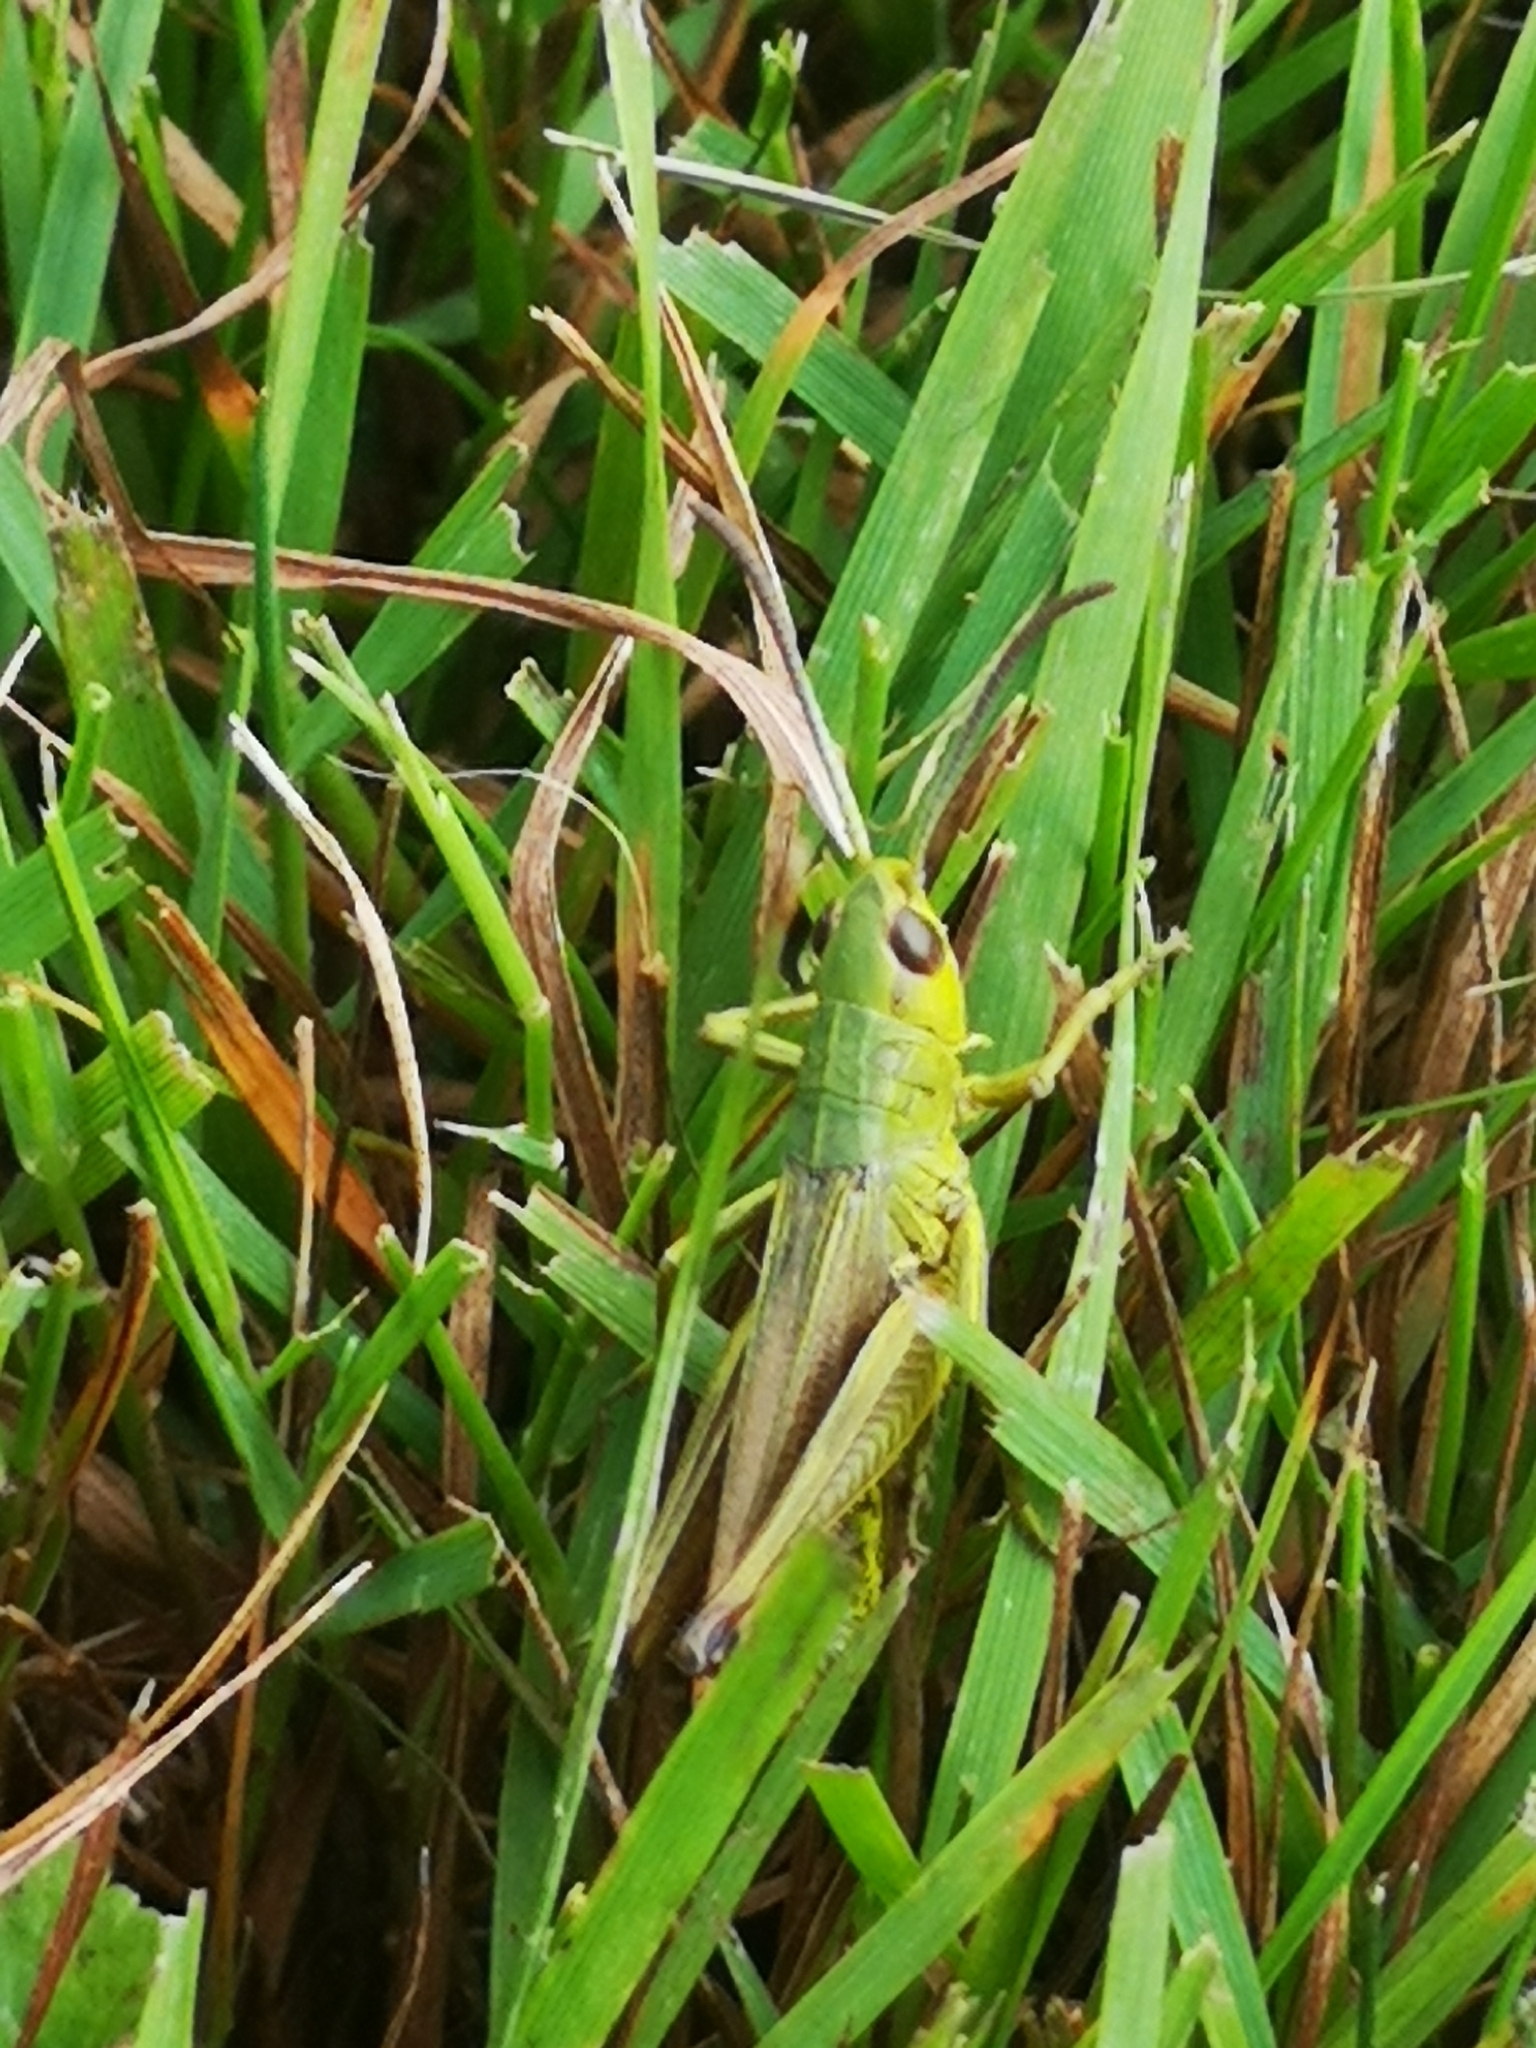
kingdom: Animalia
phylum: Arthropoda
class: Insecta
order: Orthoptera
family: Acrididae
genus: Pseudochorthippus
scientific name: Pseudochorthippus parallelus
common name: Meadow grasshopper
